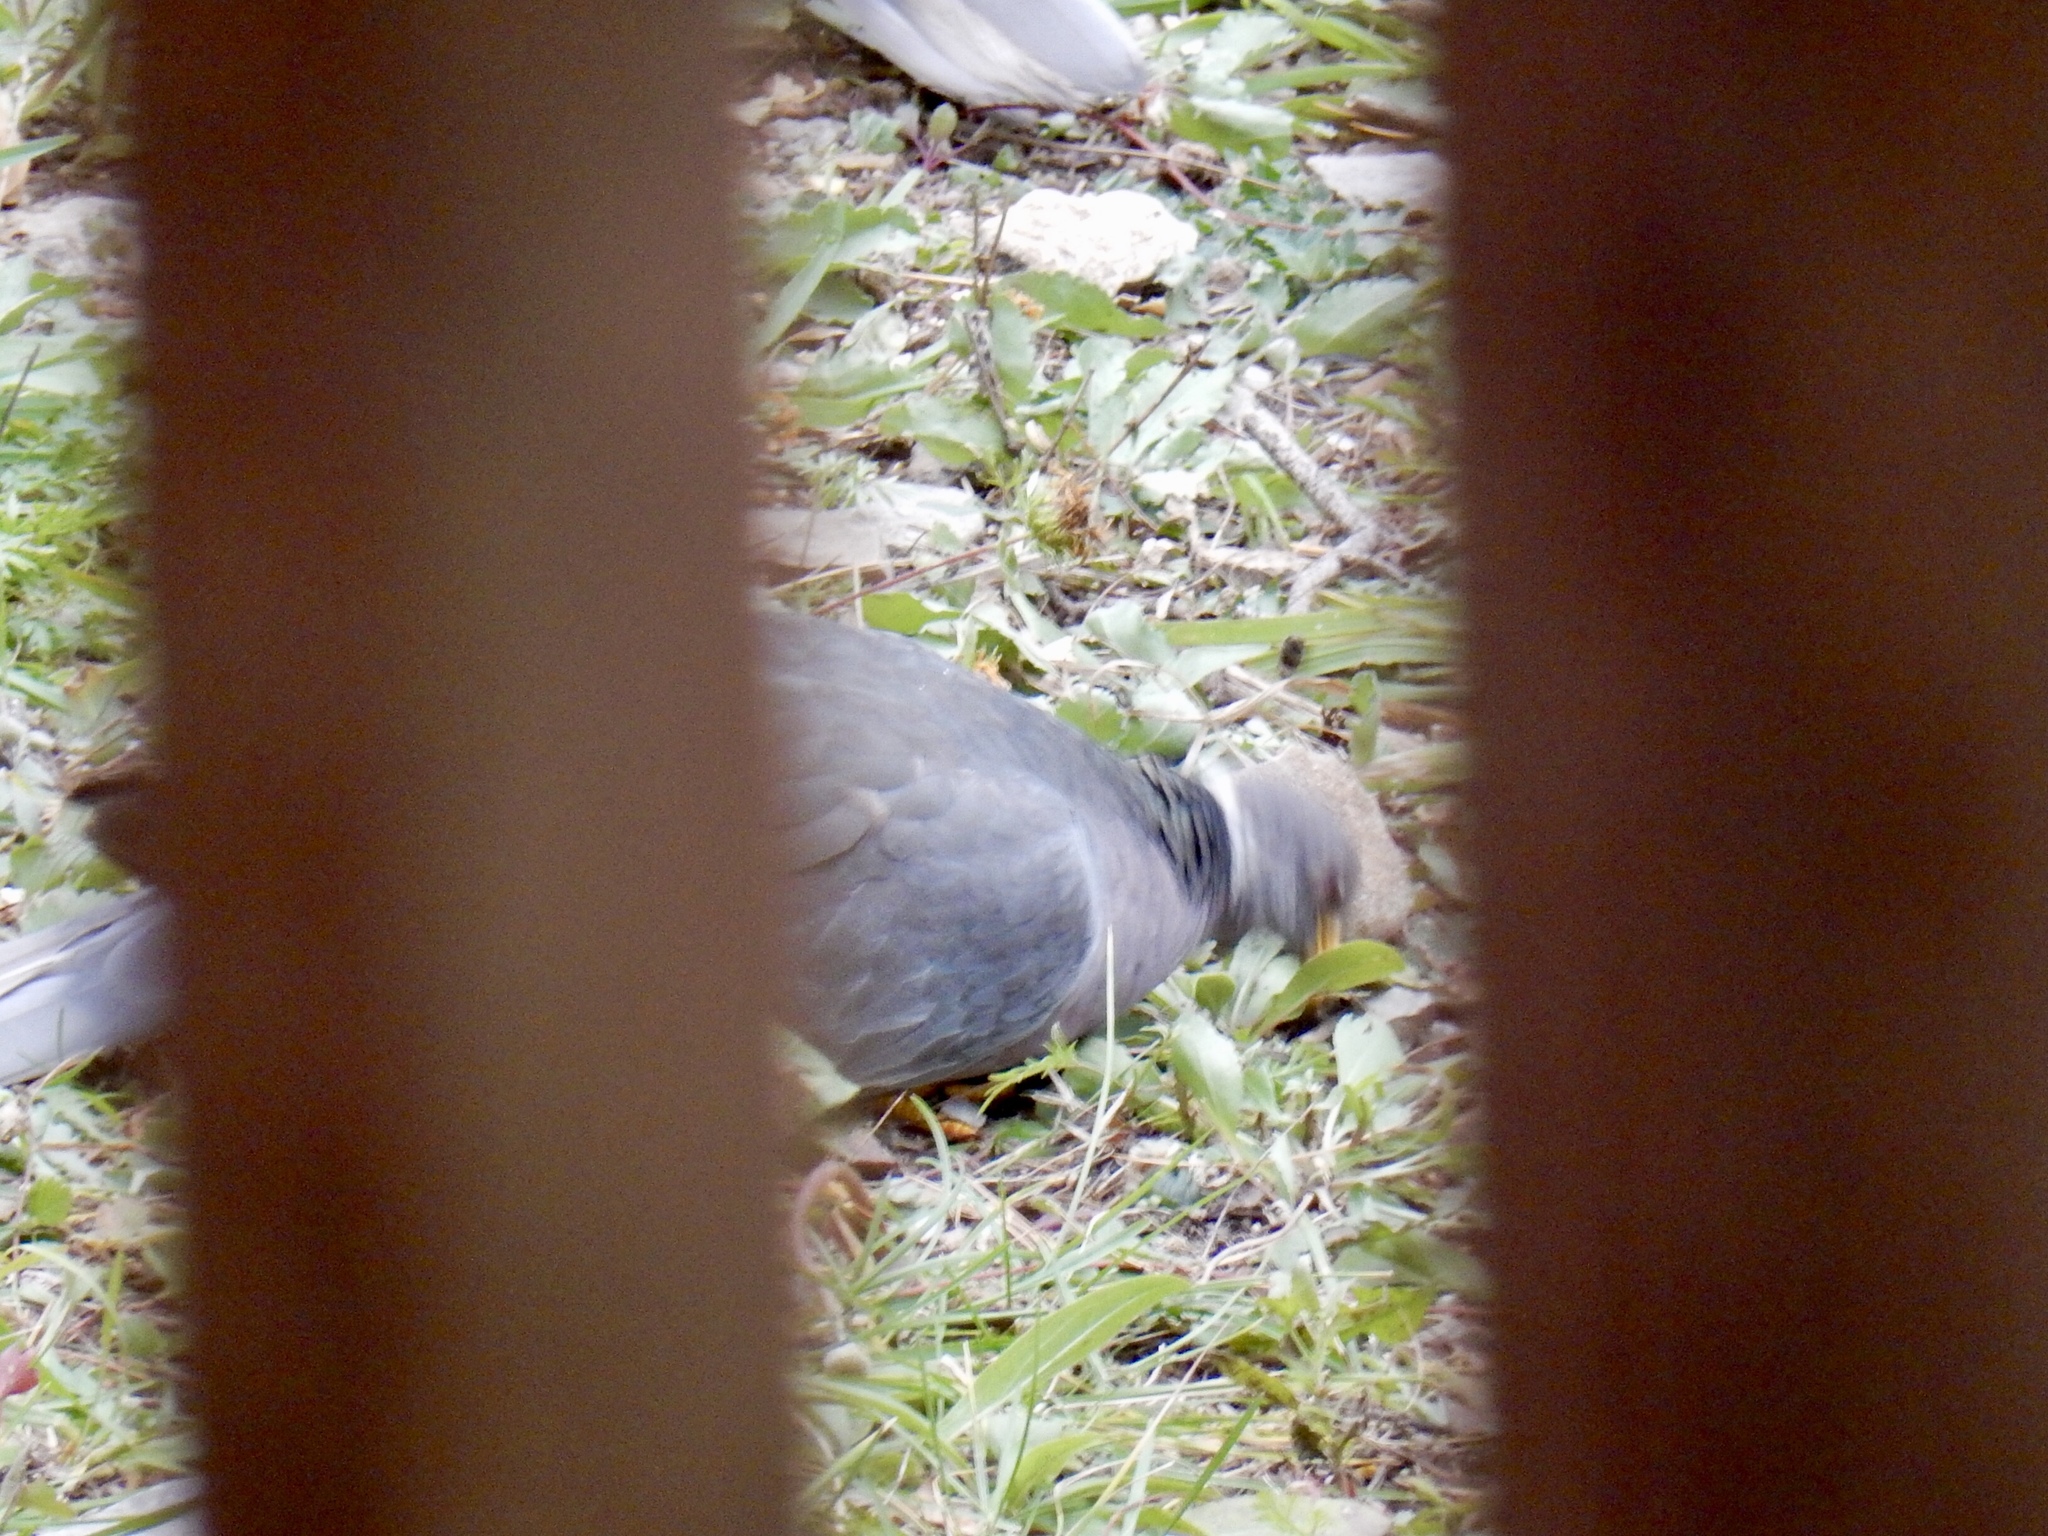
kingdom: Animalia
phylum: Chordata
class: Aves
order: Columbiformes
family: Columbidae
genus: Patagioenas
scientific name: Patagioenas fasciata
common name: Band-tailed pigeon
